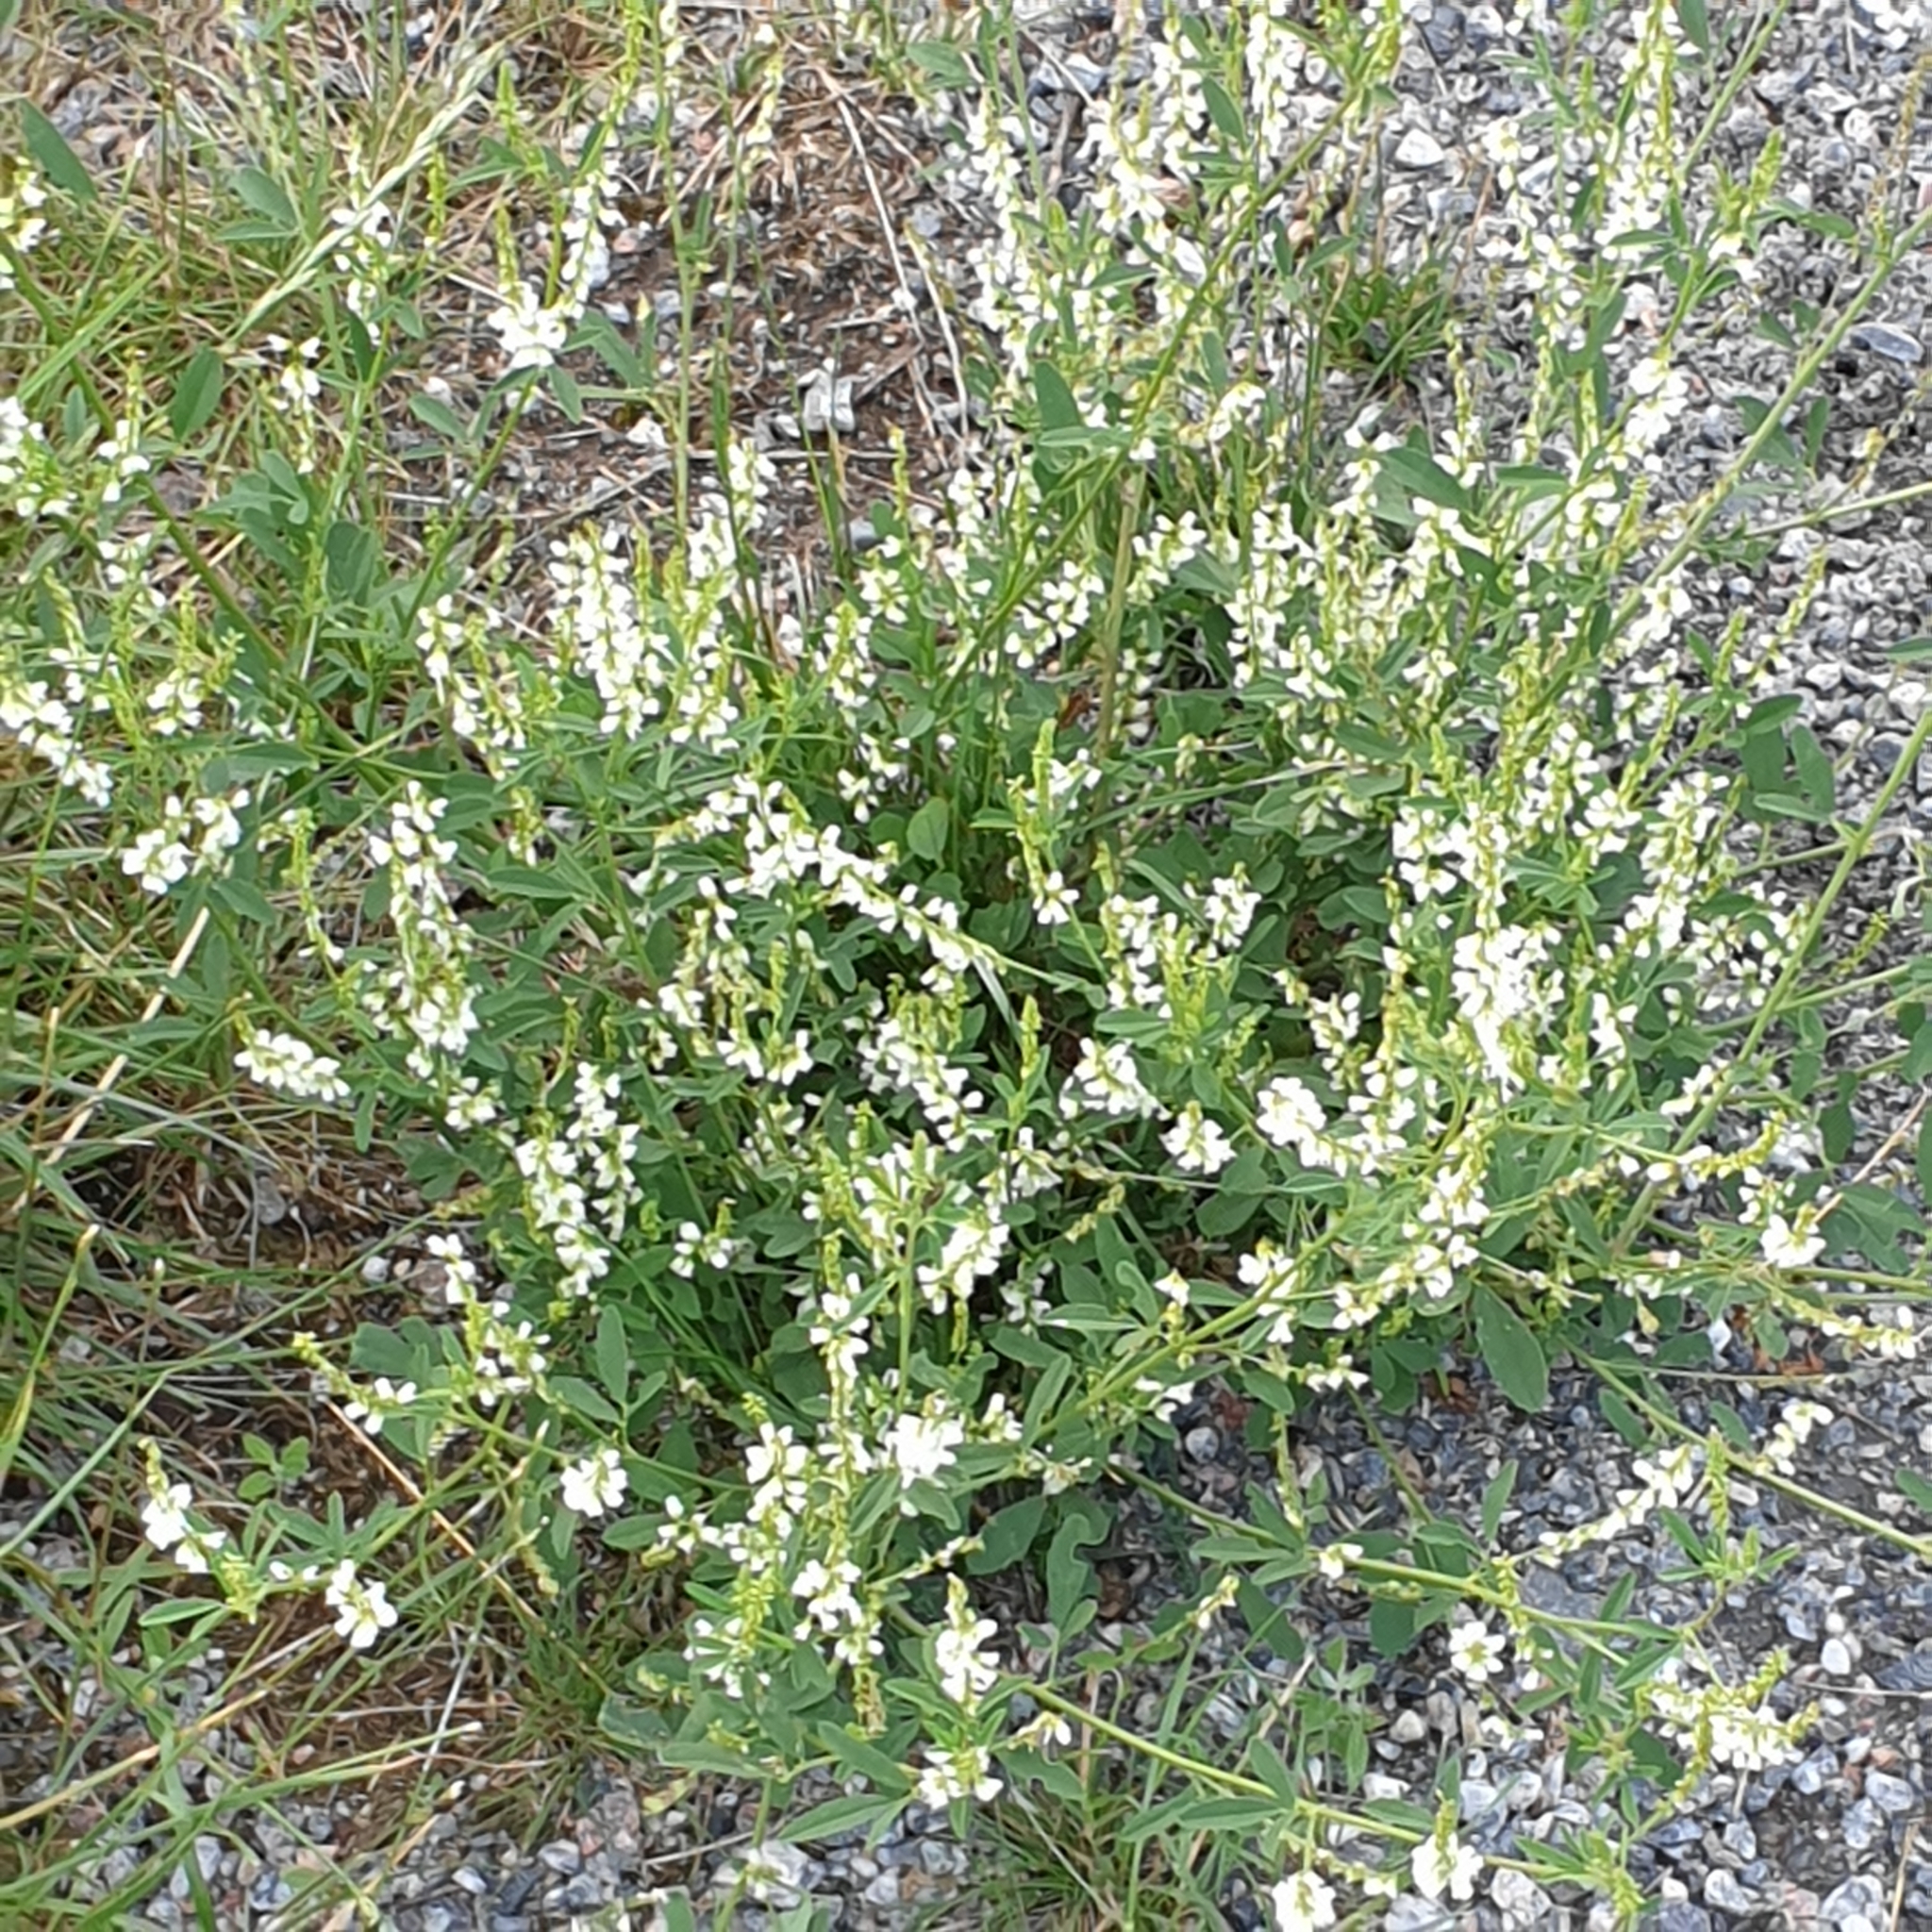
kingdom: Plantae
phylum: Tracheophyta
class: Magnoliopsida
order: Fabales
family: Fabaceae
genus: Melilotus
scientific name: Melilotus albus
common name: White melilot
